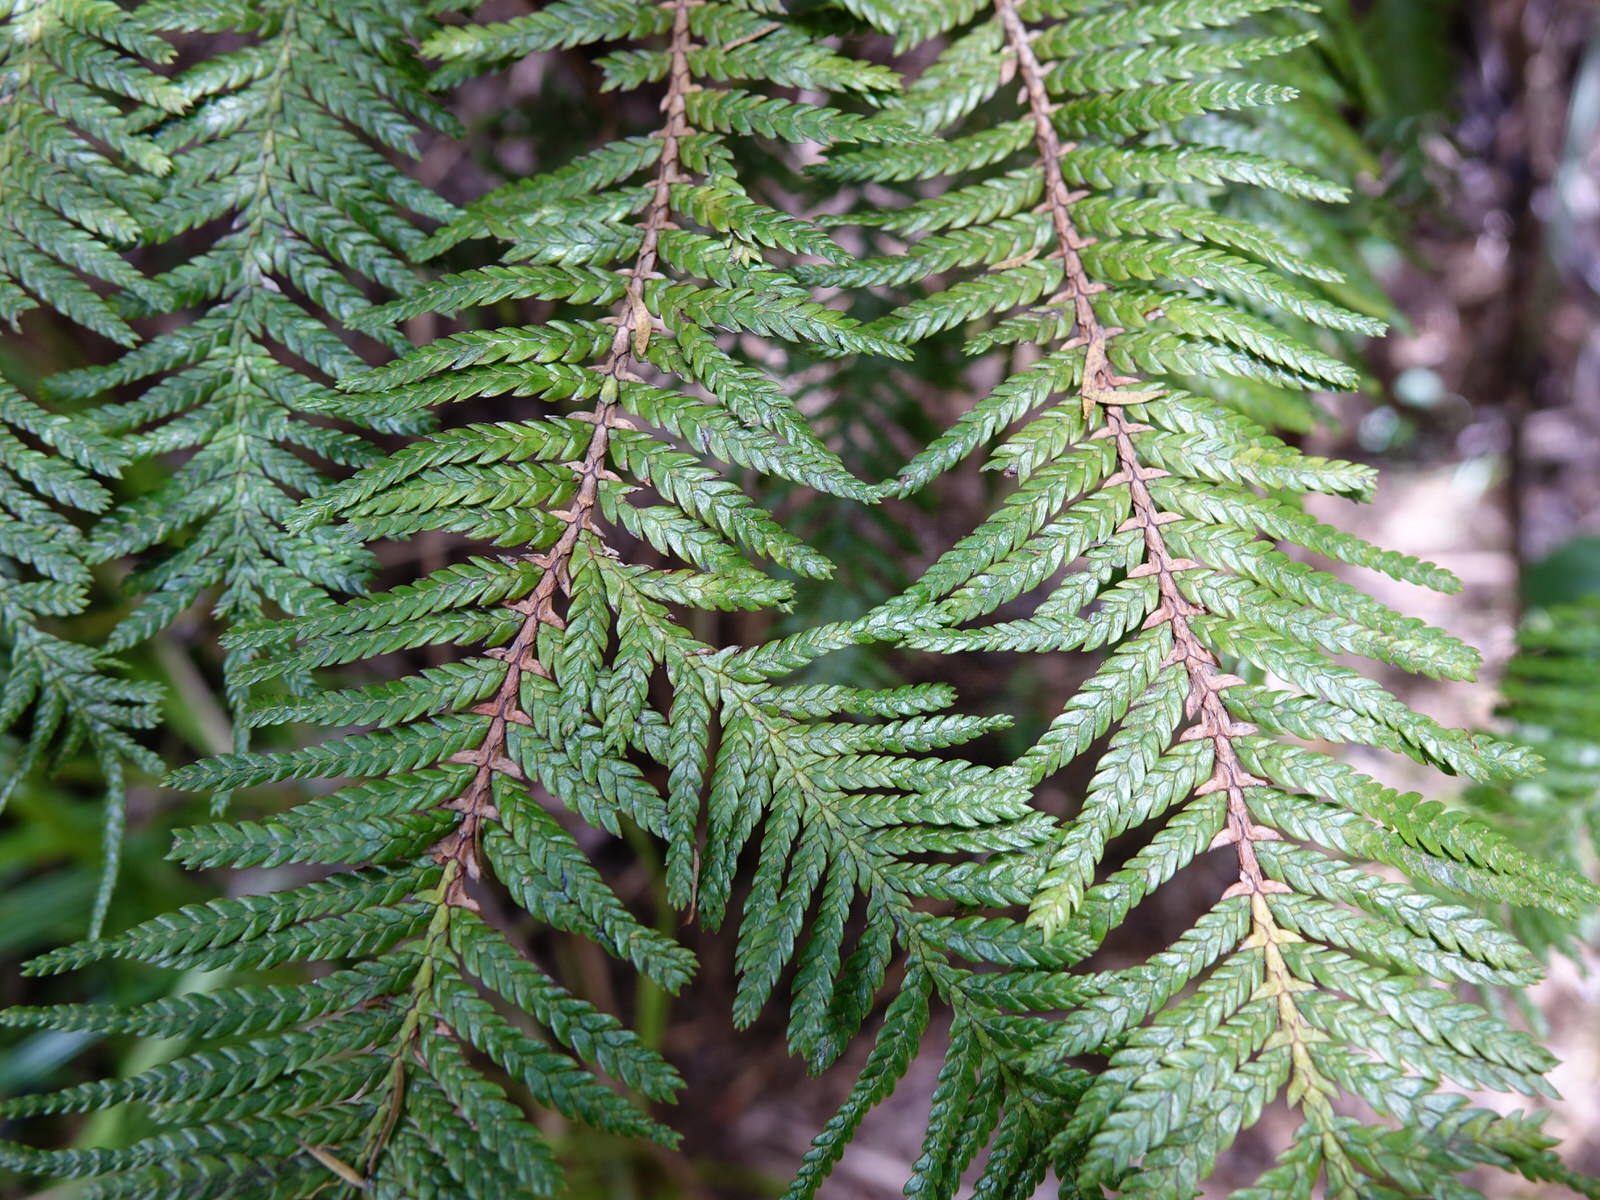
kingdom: Plantae
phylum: Tracheophyta
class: Pinopsida
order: Pinales
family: Cupressaceae
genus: Libocedrus
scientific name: Libocedrus plumosa
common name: New zealand cedar
